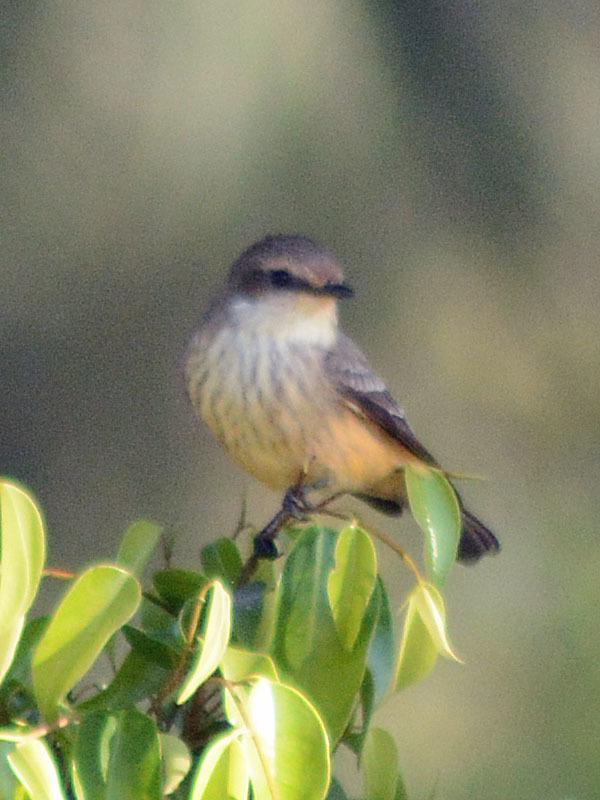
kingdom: Animalia
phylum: Chordata
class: Aves
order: Passeriformes
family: Tyrannidae
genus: Pyrocephalus
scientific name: Pyrocephalus rubinus
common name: Vermilion flycatcher
